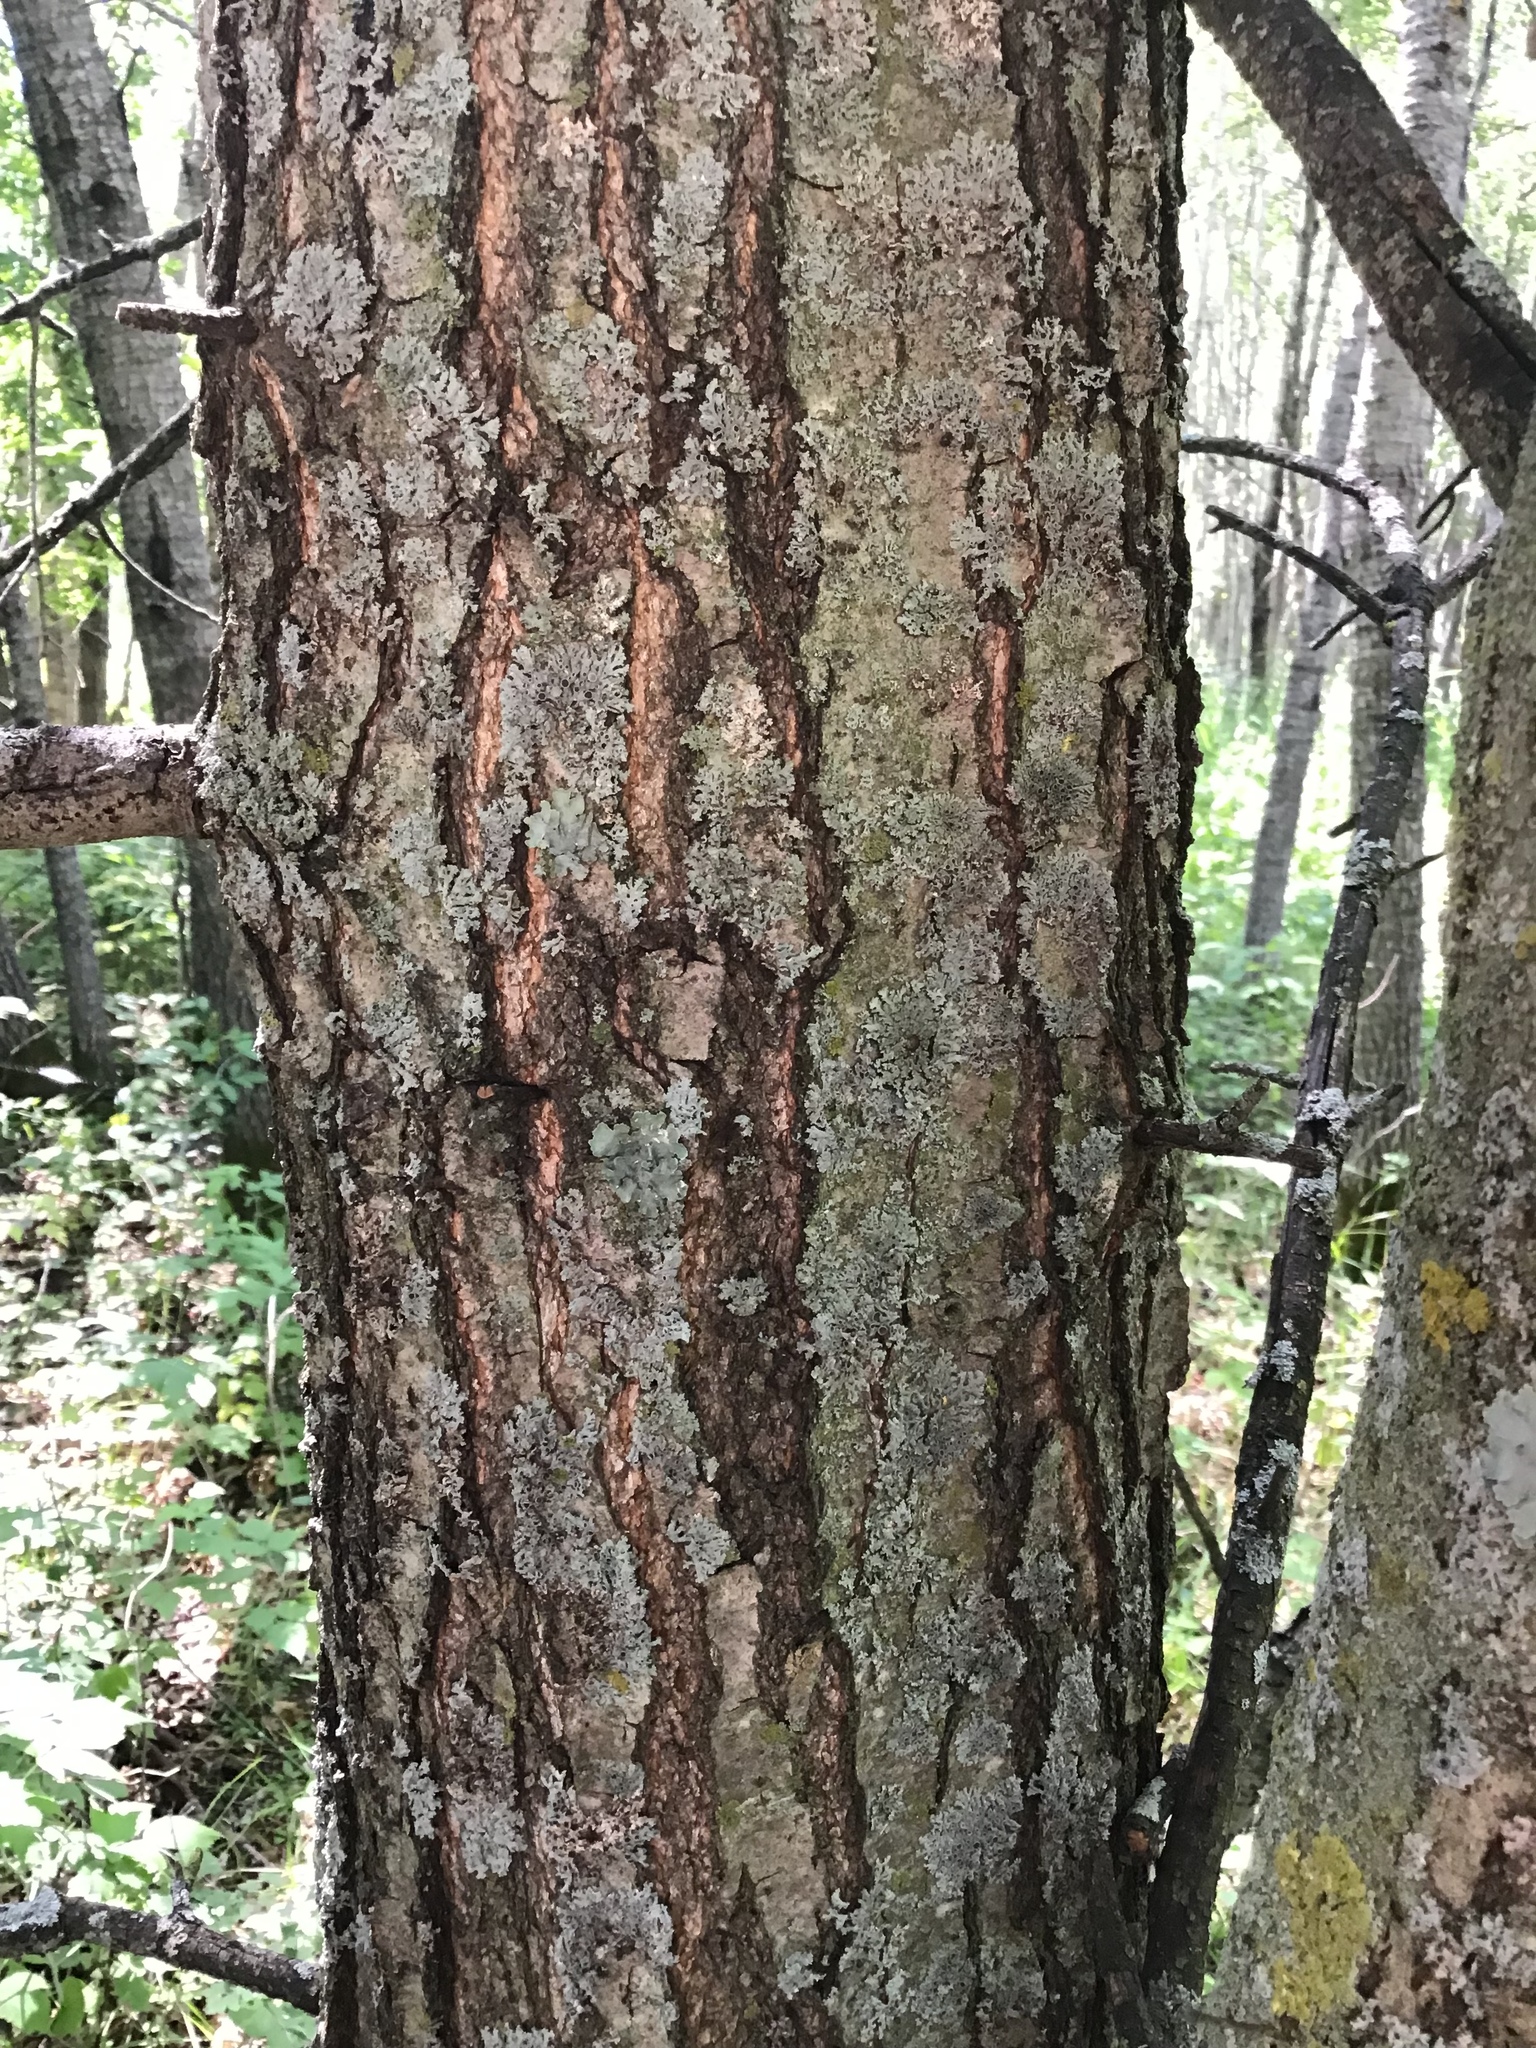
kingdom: Plantae
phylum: Tracheophyta
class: Magnoliopsida
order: Fagales
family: Fagaceae
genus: Quercus
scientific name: Quercus rubra
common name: Red oak
